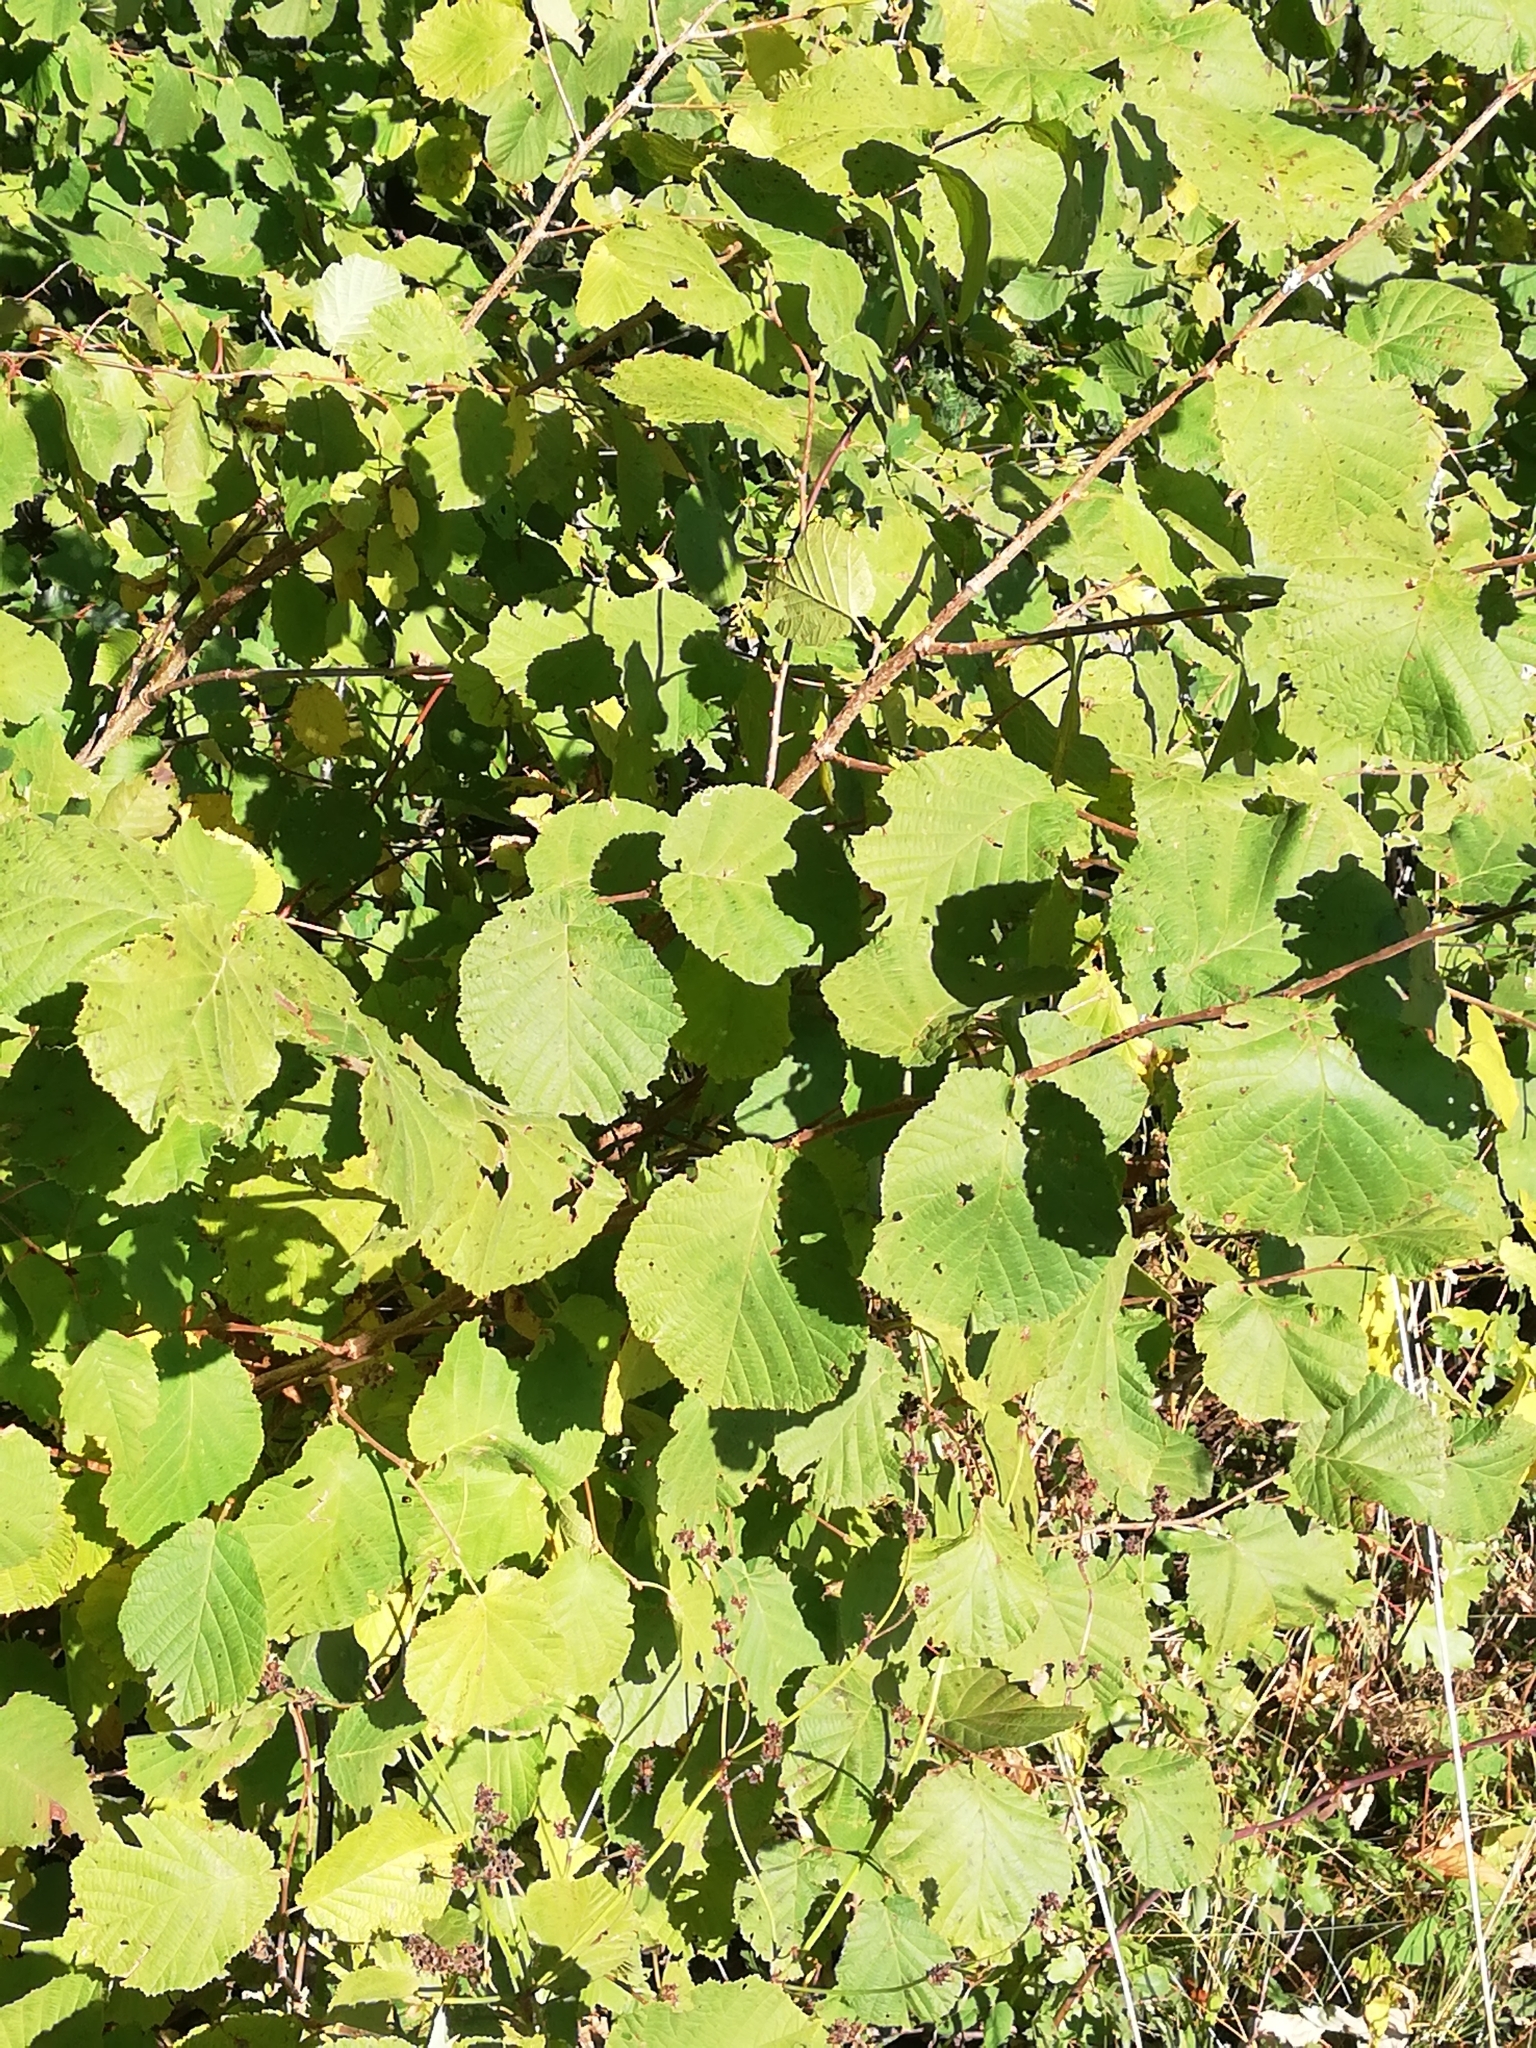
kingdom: Plantae
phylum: Tracheophyta
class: Magnoliopsida
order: Fagales
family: Betulaceae
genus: Corylus
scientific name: Corylus avellana
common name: European hazel
